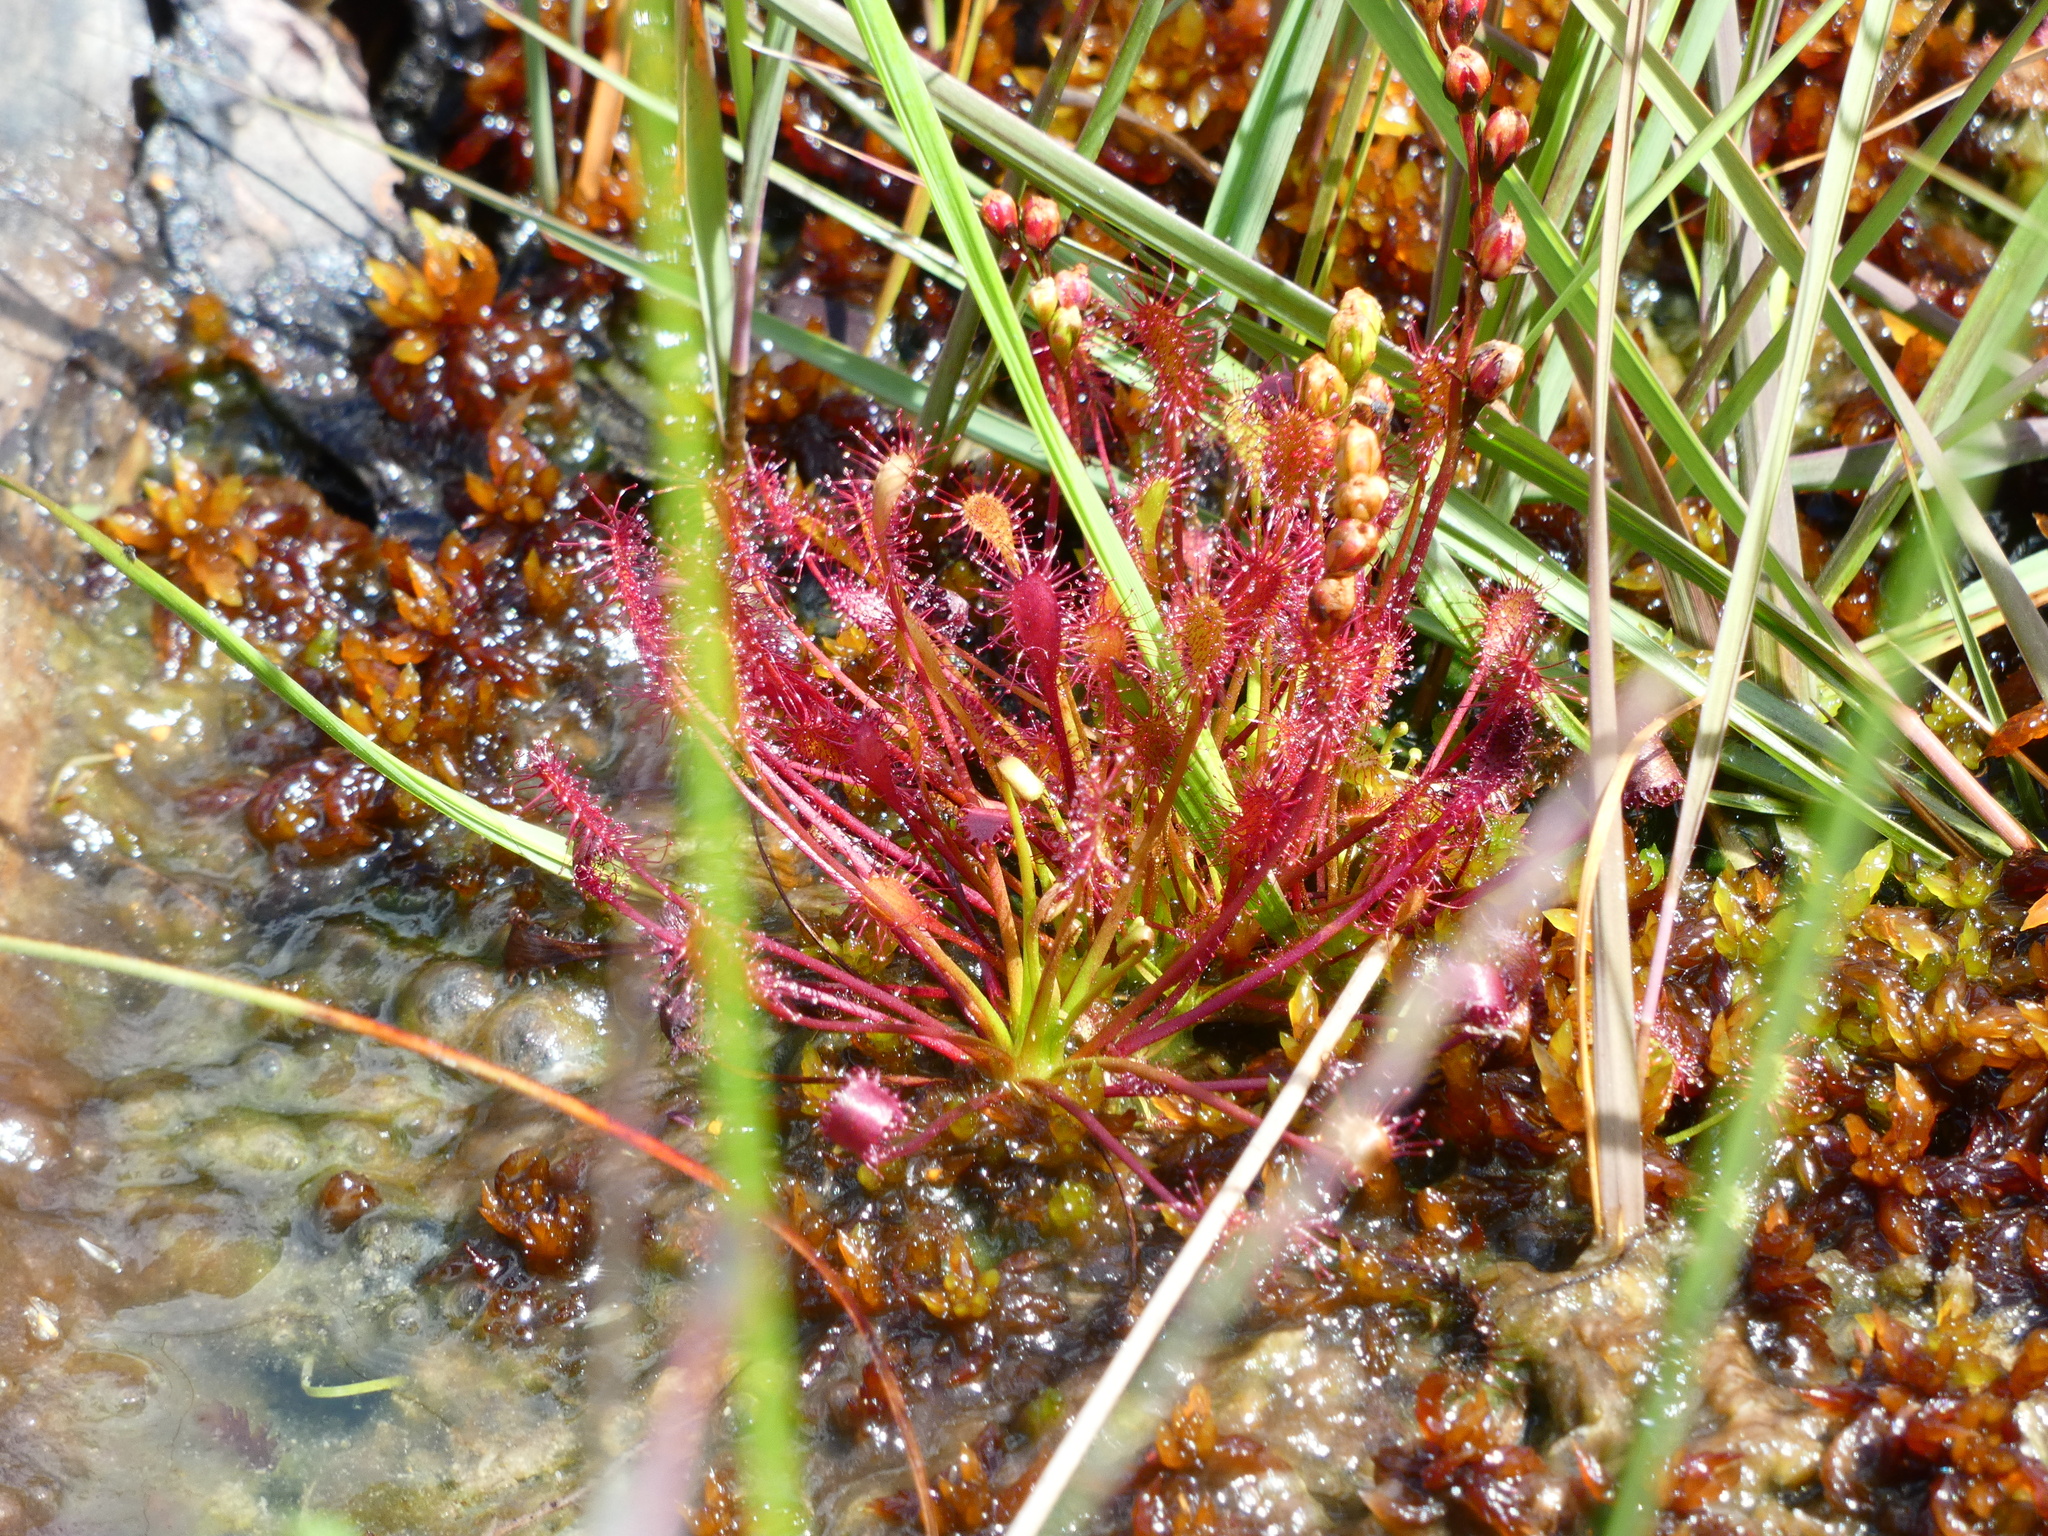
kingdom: Plantae
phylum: Tracheophyta
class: Magnoliopsida
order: Caryophyllales
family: Droseraceae
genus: Drosera
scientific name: Drosera intermedia
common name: Oblong-leaved sundew
